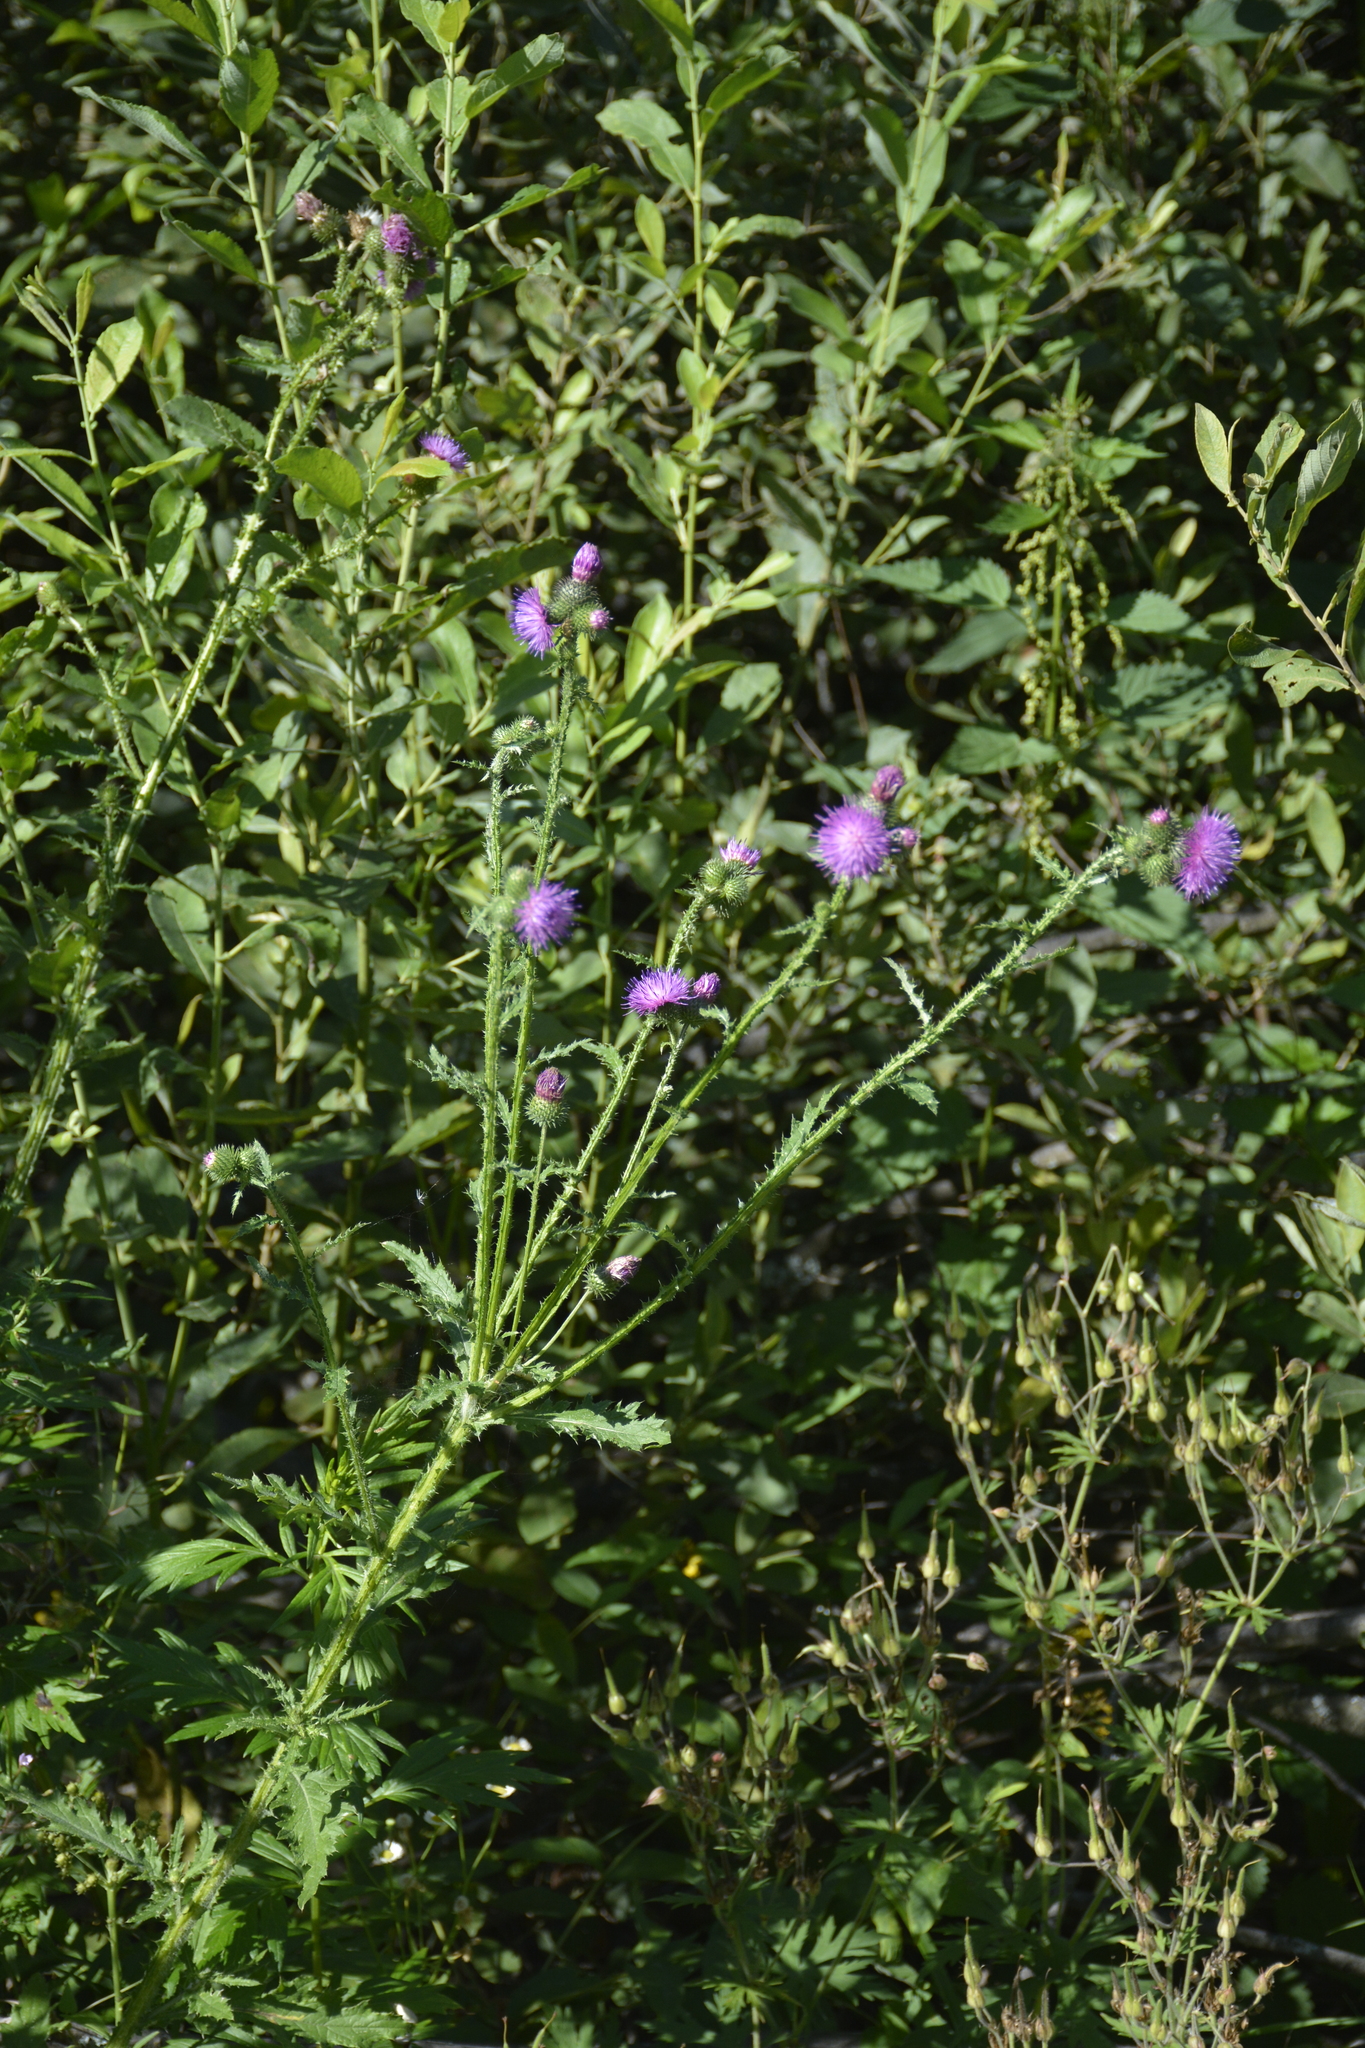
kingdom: Plantae
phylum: Tracheophyta
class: Magnoliopsida
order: Asterales
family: Asteraceae
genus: Carduus
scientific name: Carduus crispus
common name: Welted thistle
